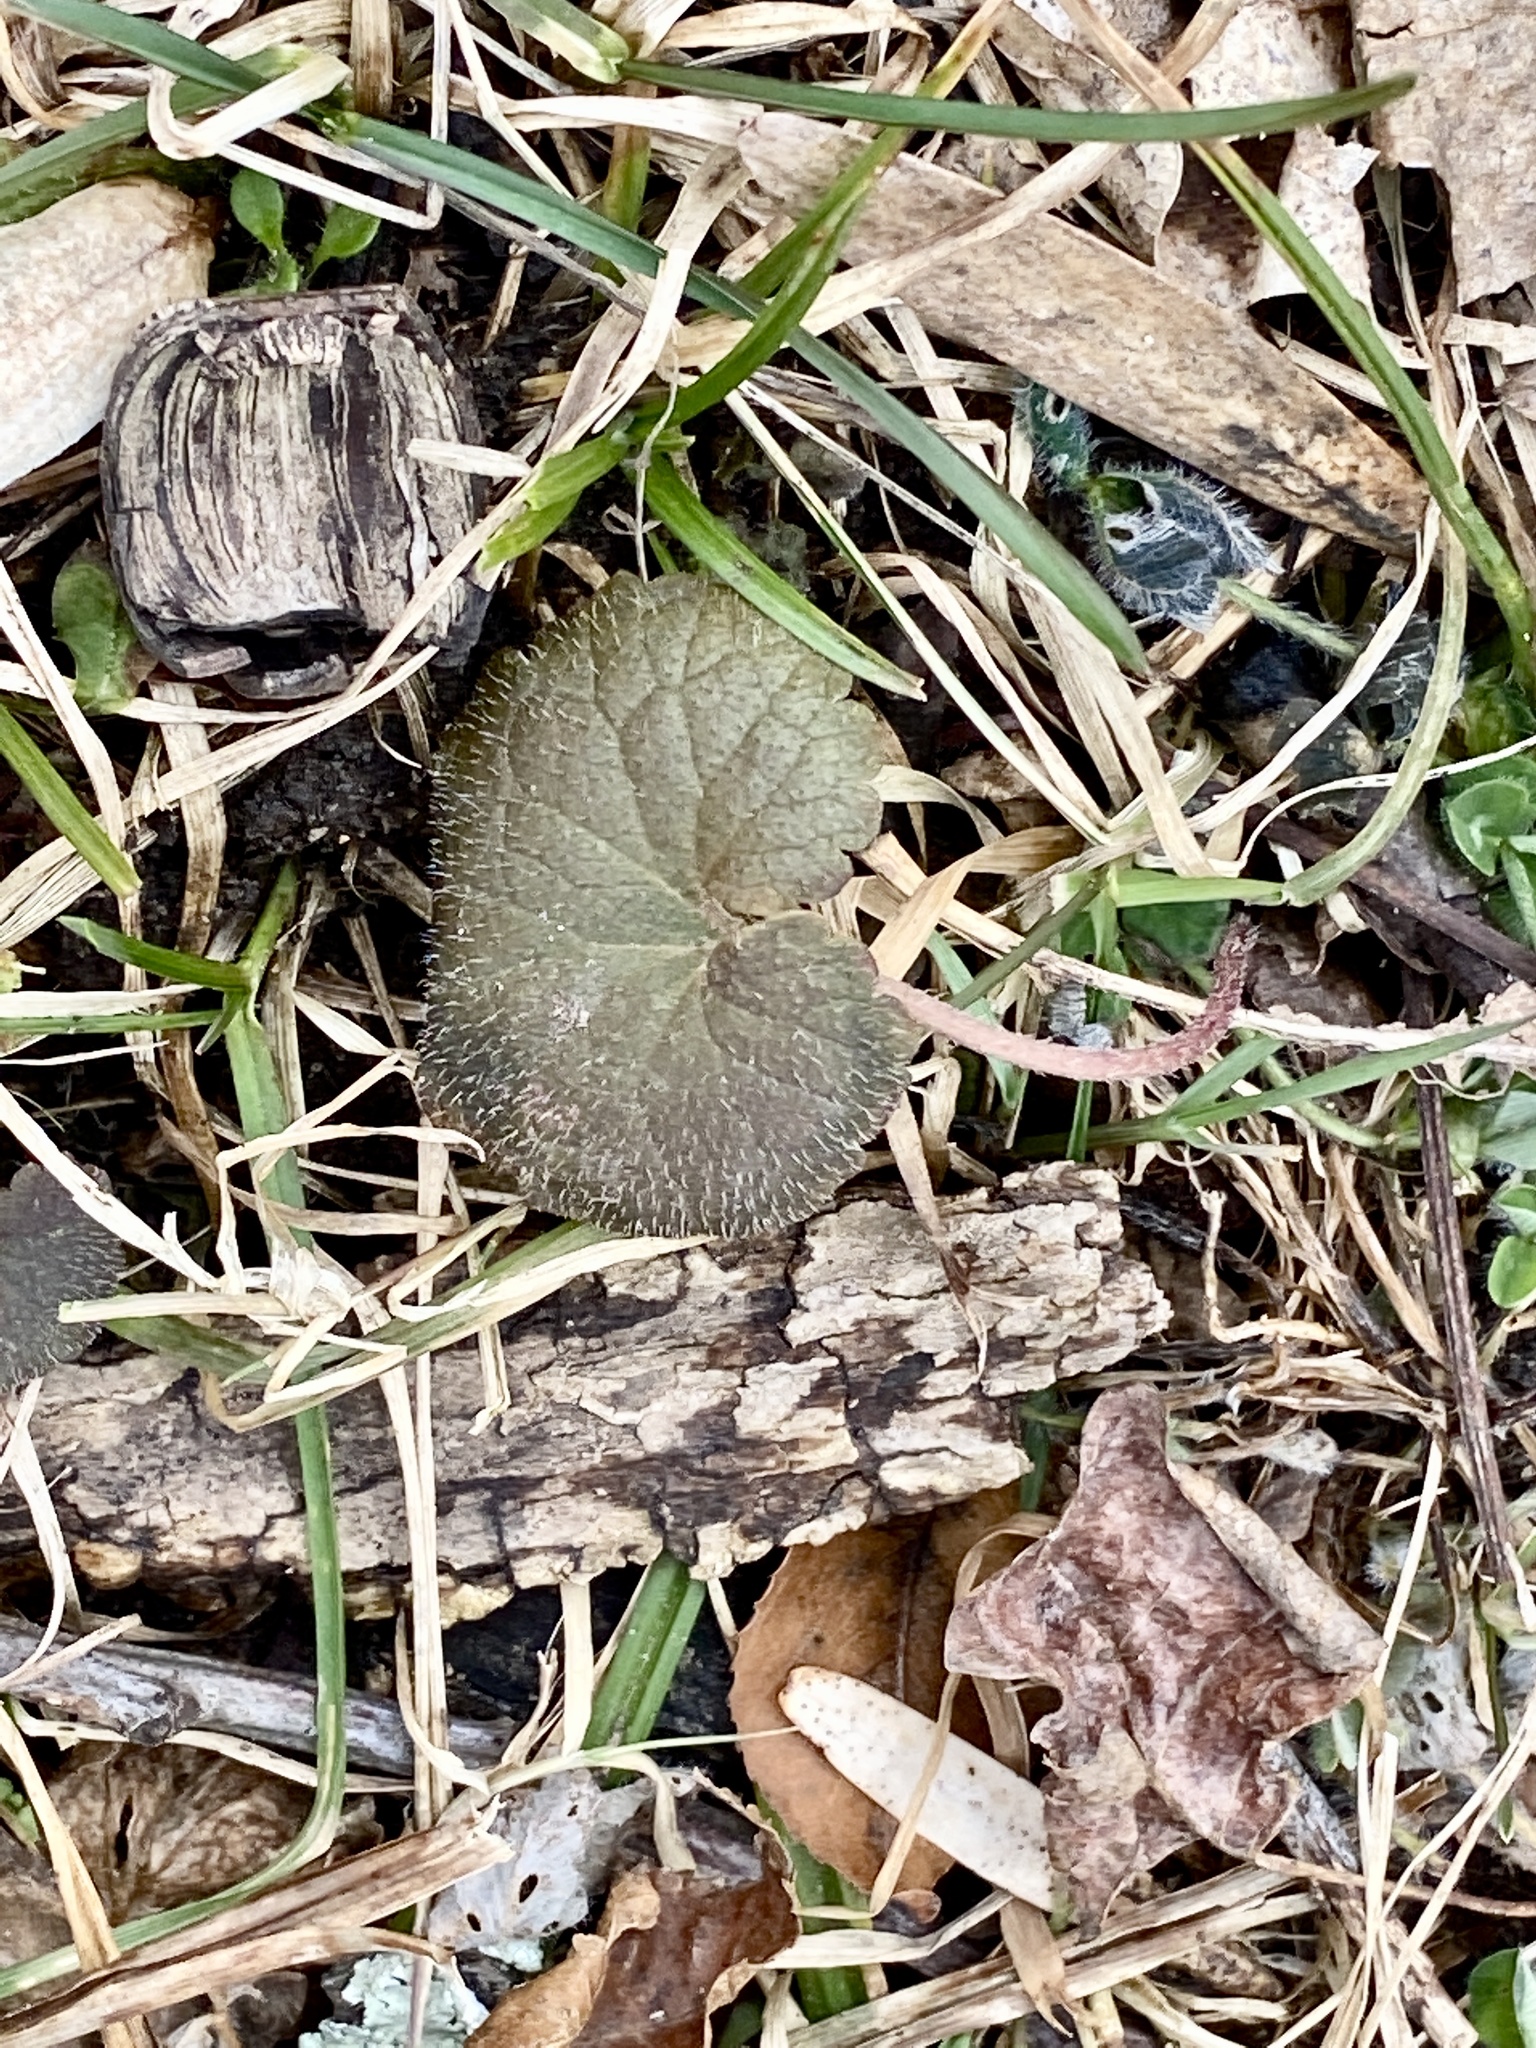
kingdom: Plantae
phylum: Tracheophyta
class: Magnoliopsida
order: Lamiales
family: Lamiaceae
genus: Glechoma
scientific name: Glechoma hederacea
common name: Ground ivy
